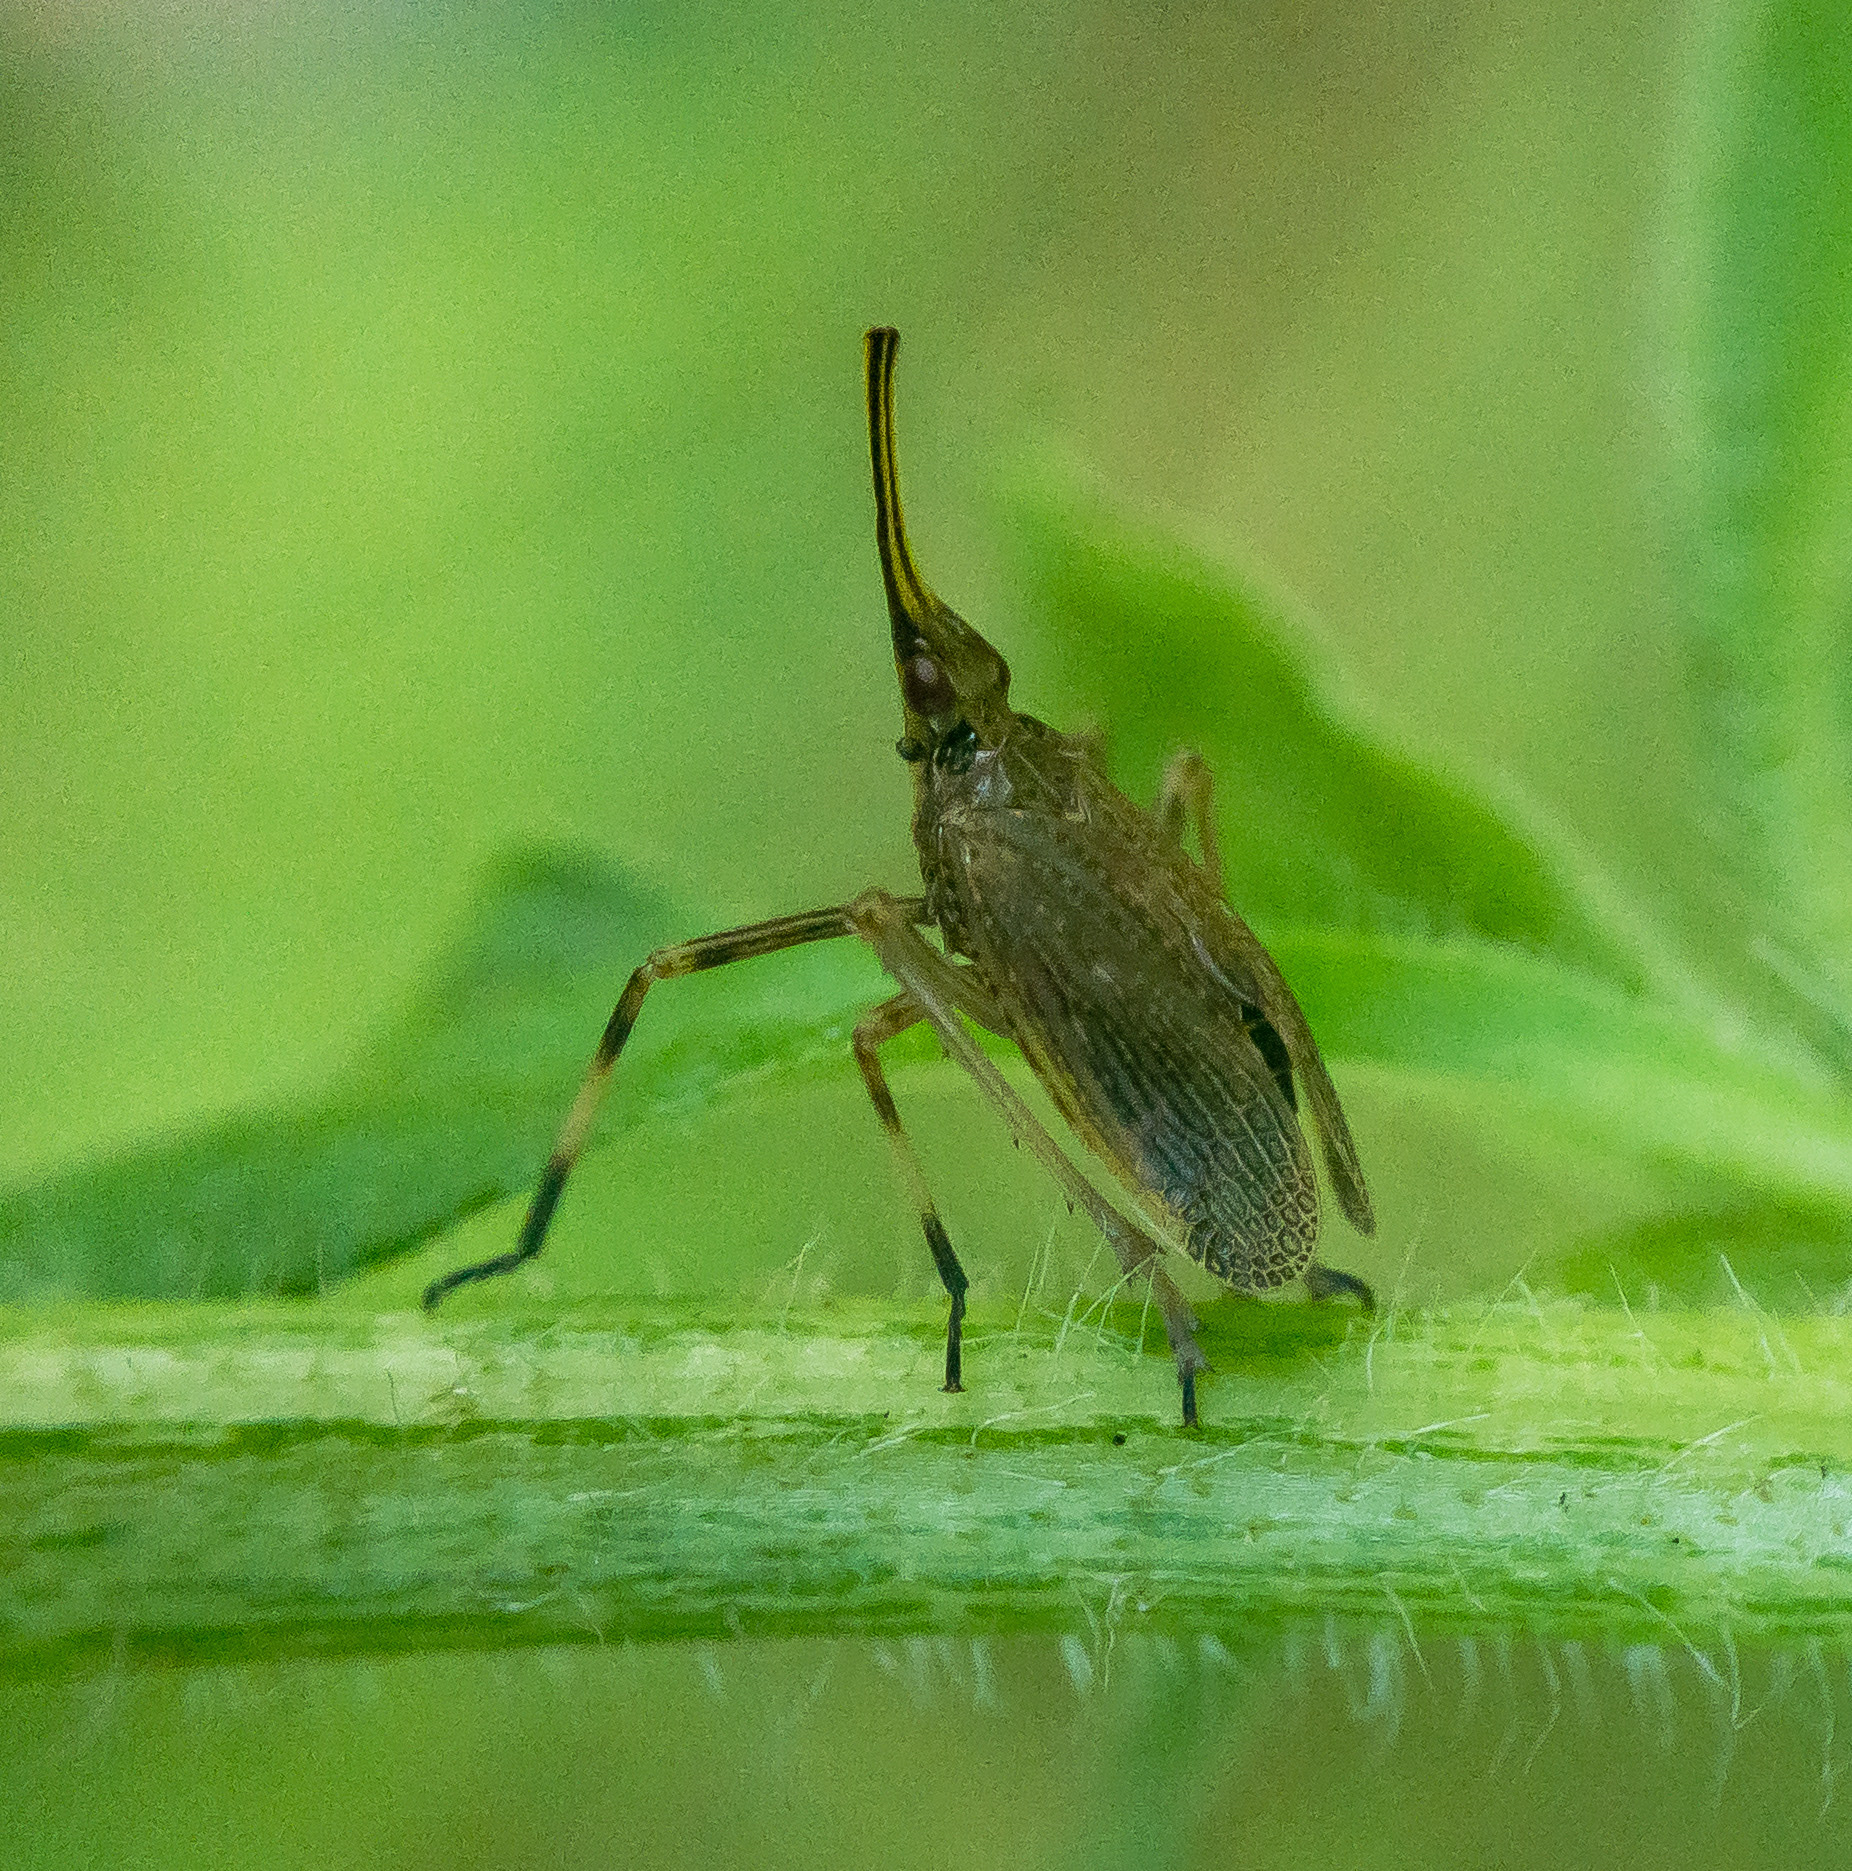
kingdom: Animalia
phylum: Arthropoda
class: Insecta
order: Hemiptera
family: Dictyopharidae
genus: Scolops
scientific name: Scolops sulcipes
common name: Partridge planthopper
